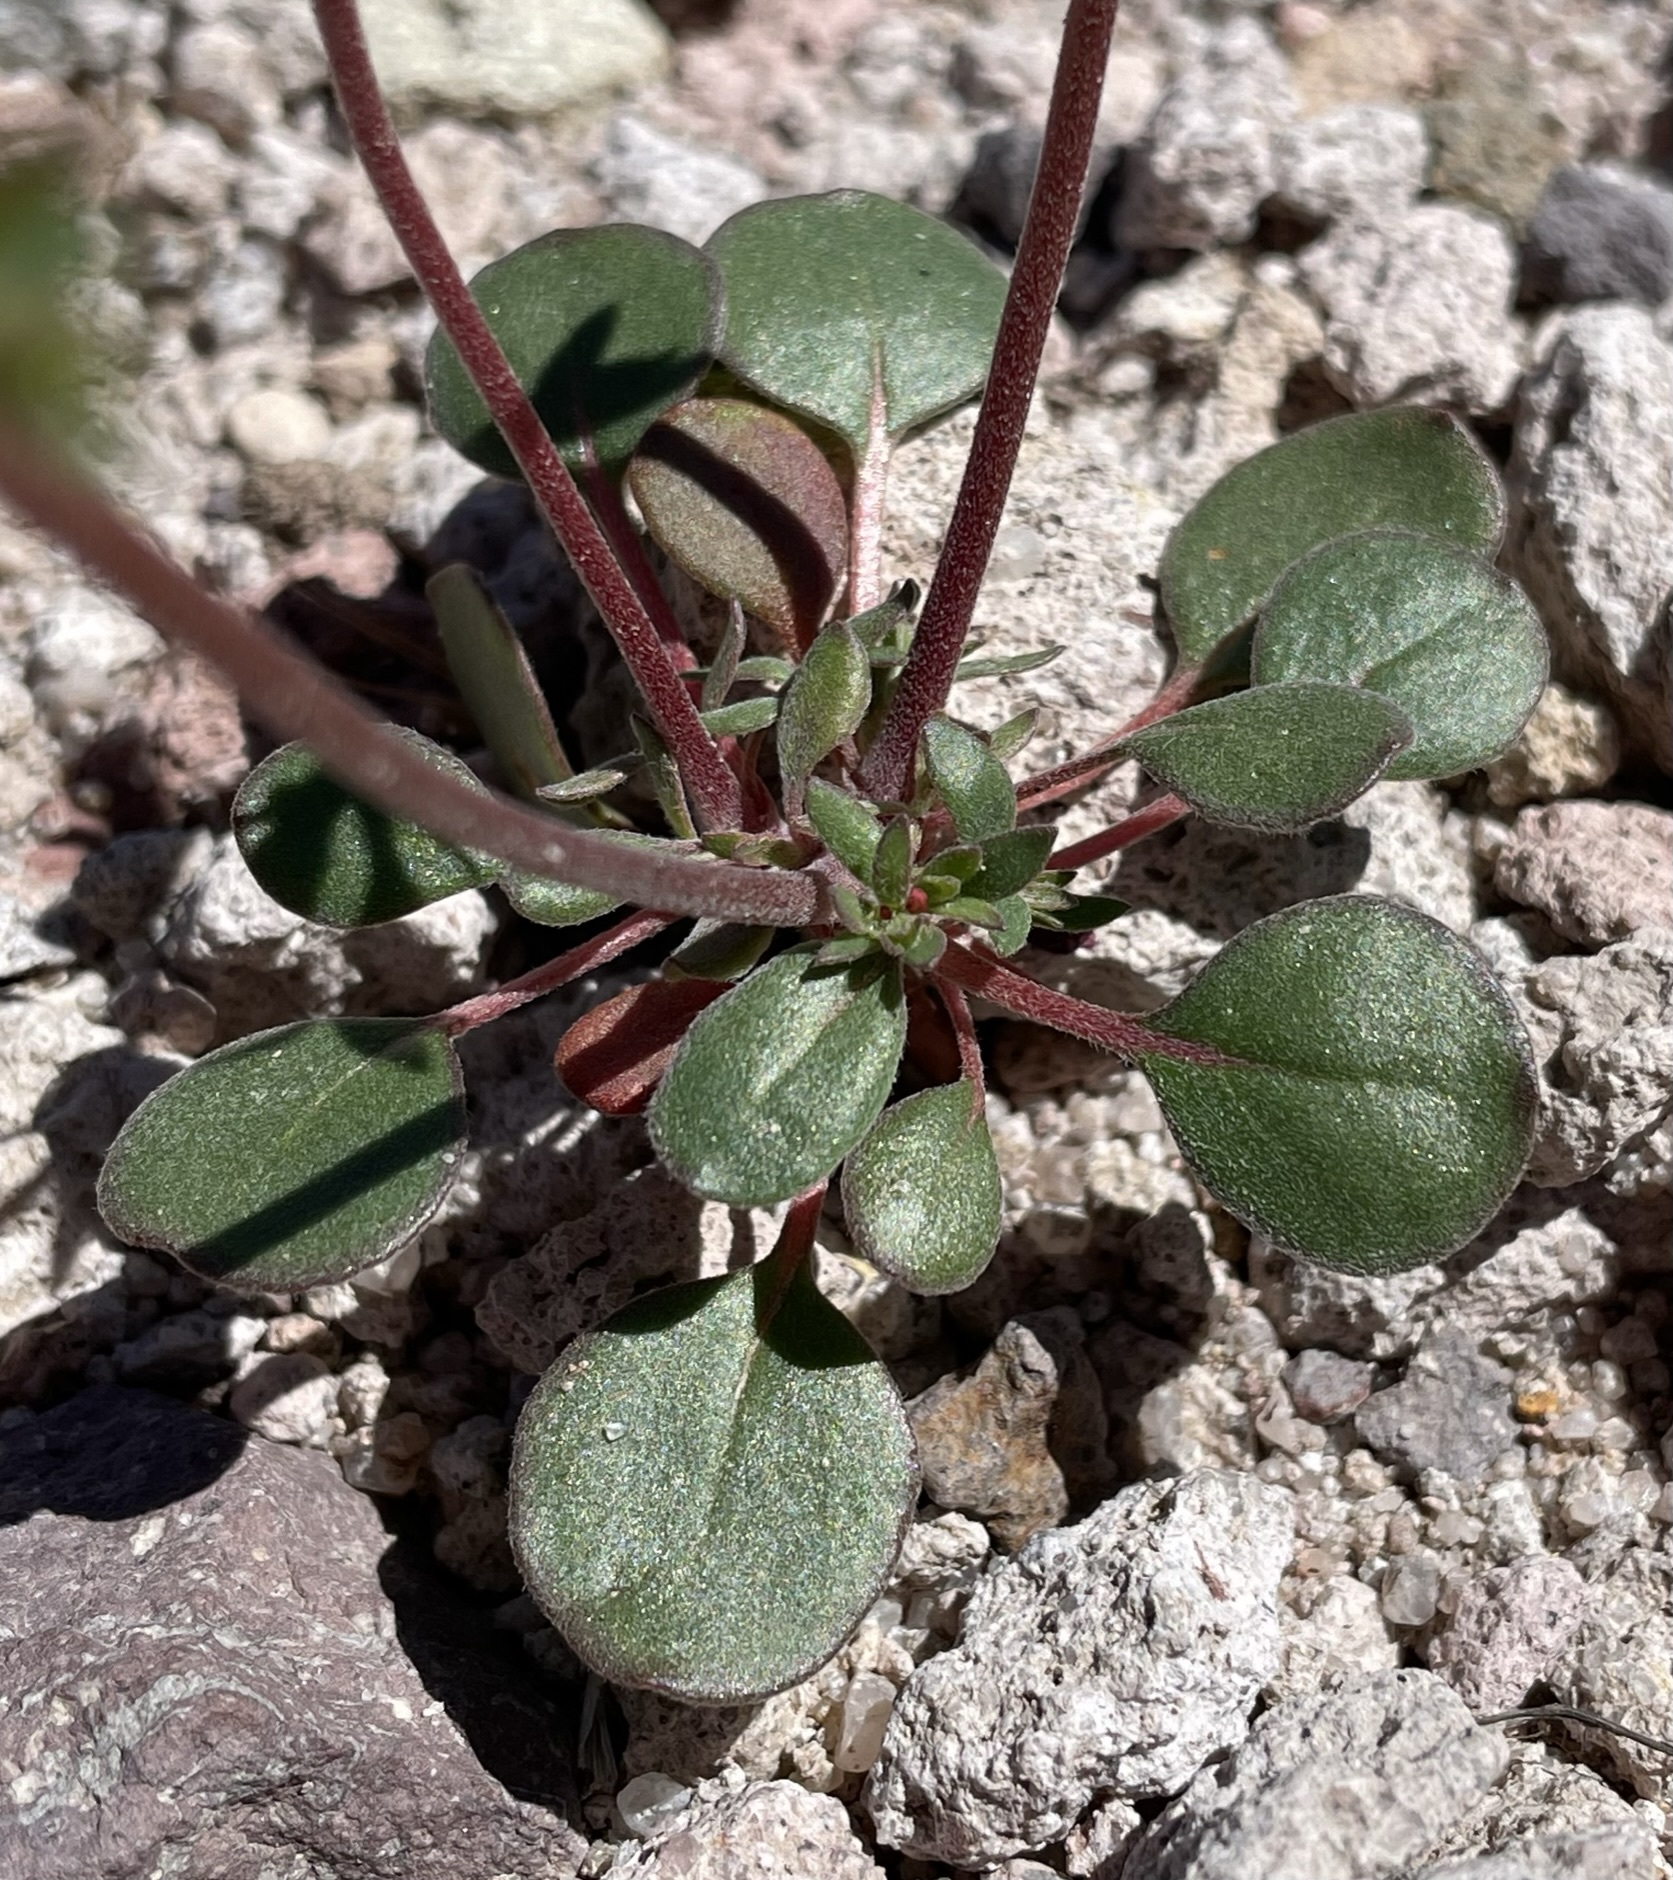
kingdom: Plantae
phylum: Tracheophyta
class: Magnoliopsida
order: Caryophyllales
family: Polygonaceae
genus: Johanneshowellia
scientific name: Johanneshowellia puberula
